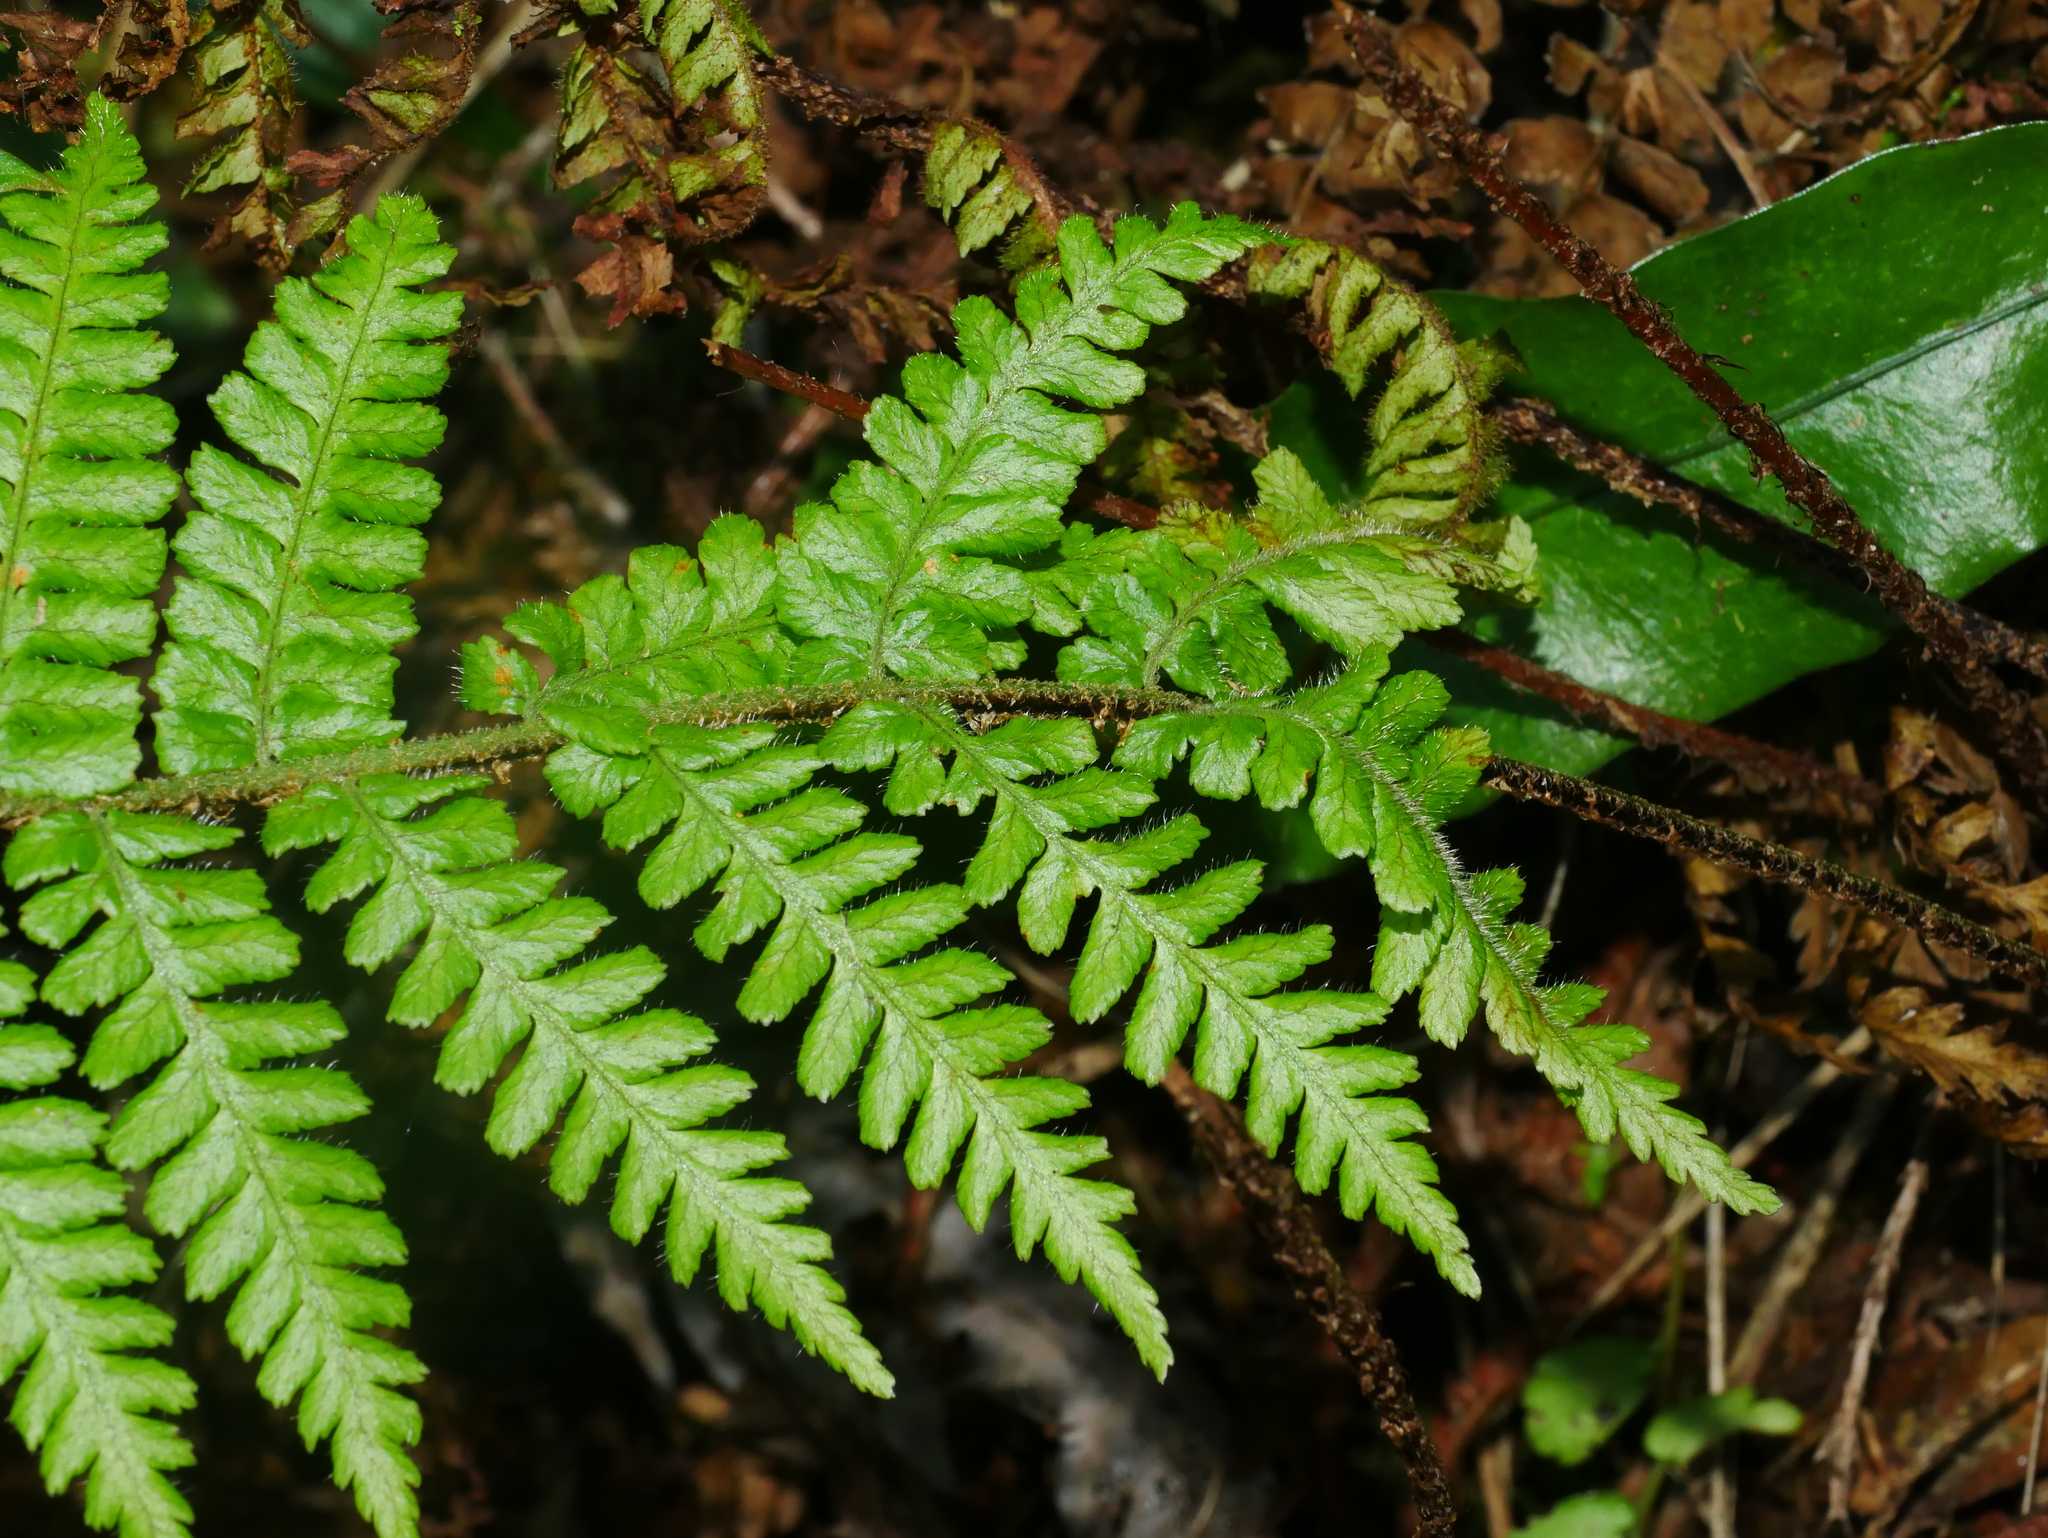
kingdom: Plantae
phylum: Tracheophyta
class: Polypodiopsida
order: Polypodiales
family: Dryopteridaceae
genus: Dryopteris
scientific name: Dryopteris kawakamii
